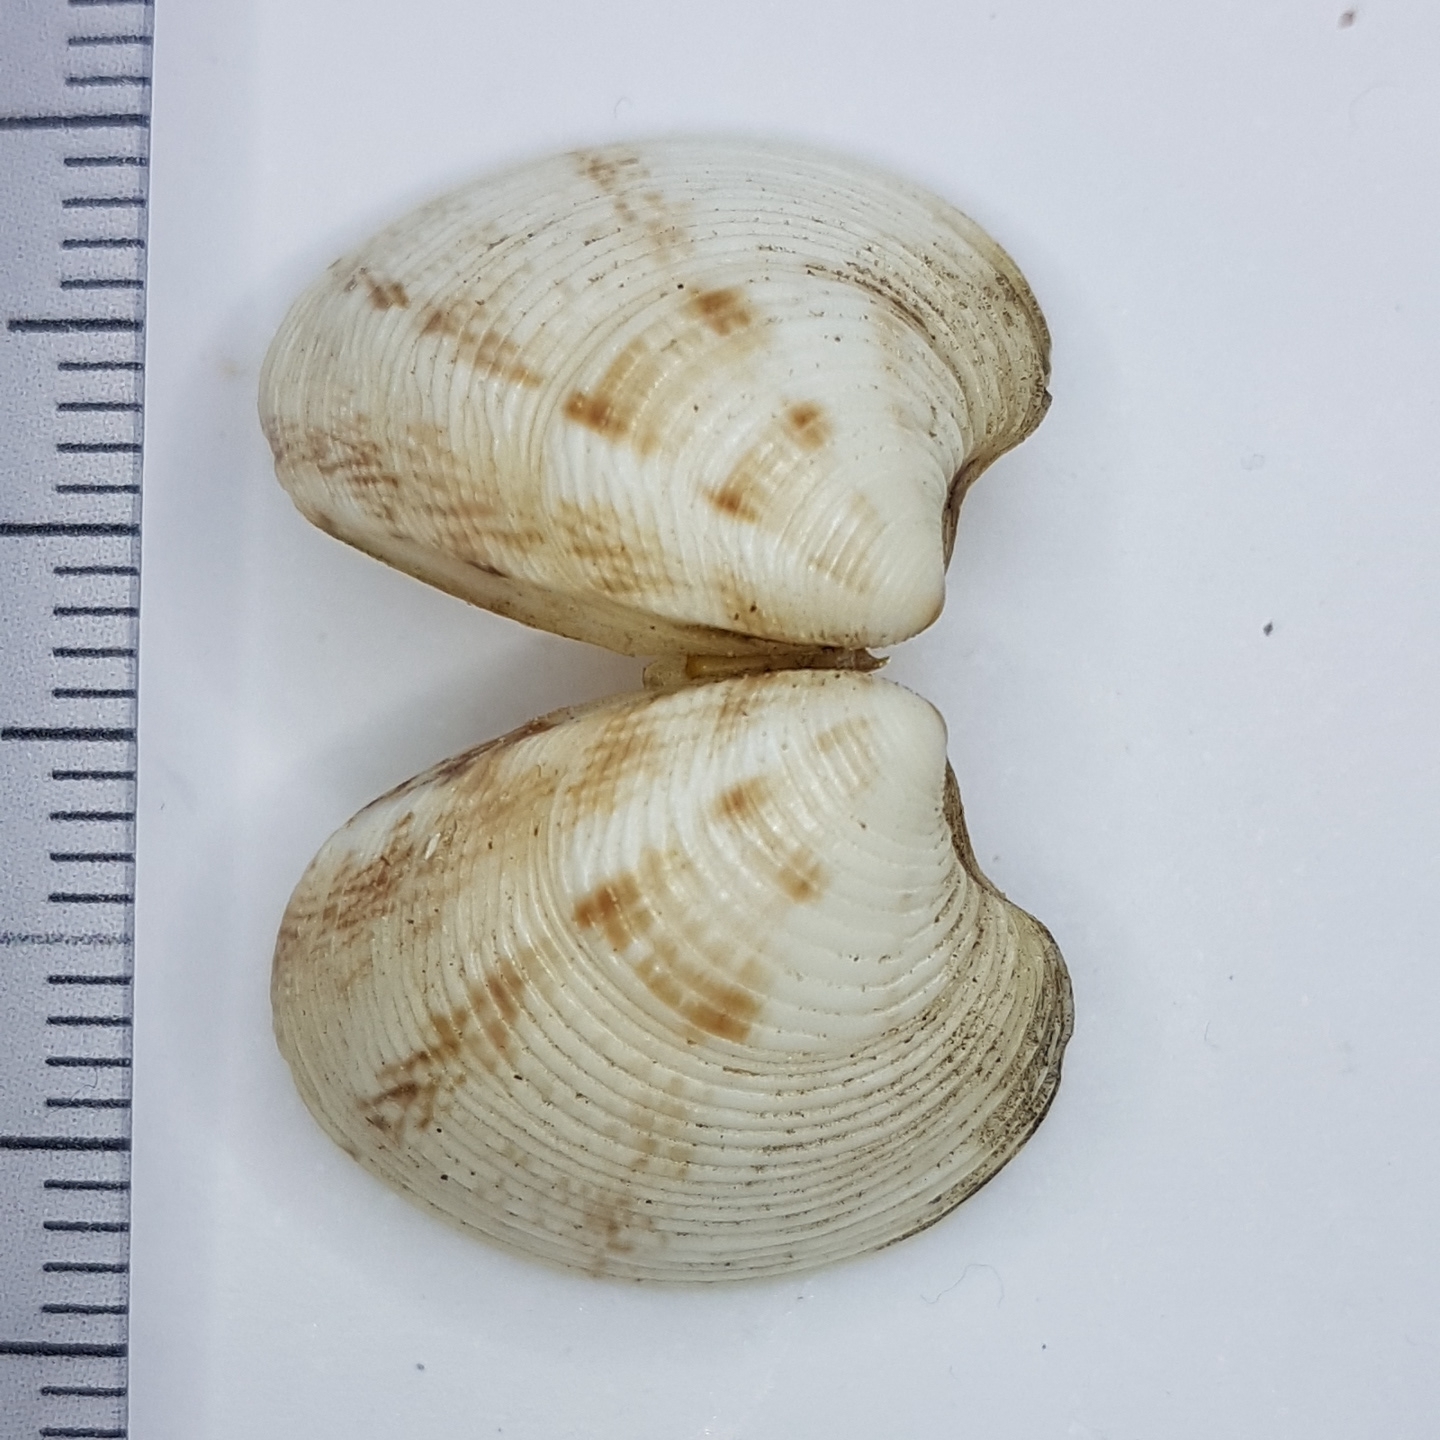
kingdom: Animalia
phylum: Mollusca
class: Bivalvia
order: Venerida
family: Veneridae
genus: Chamelea
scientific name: Chamelea gallina
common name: Chicken venus
